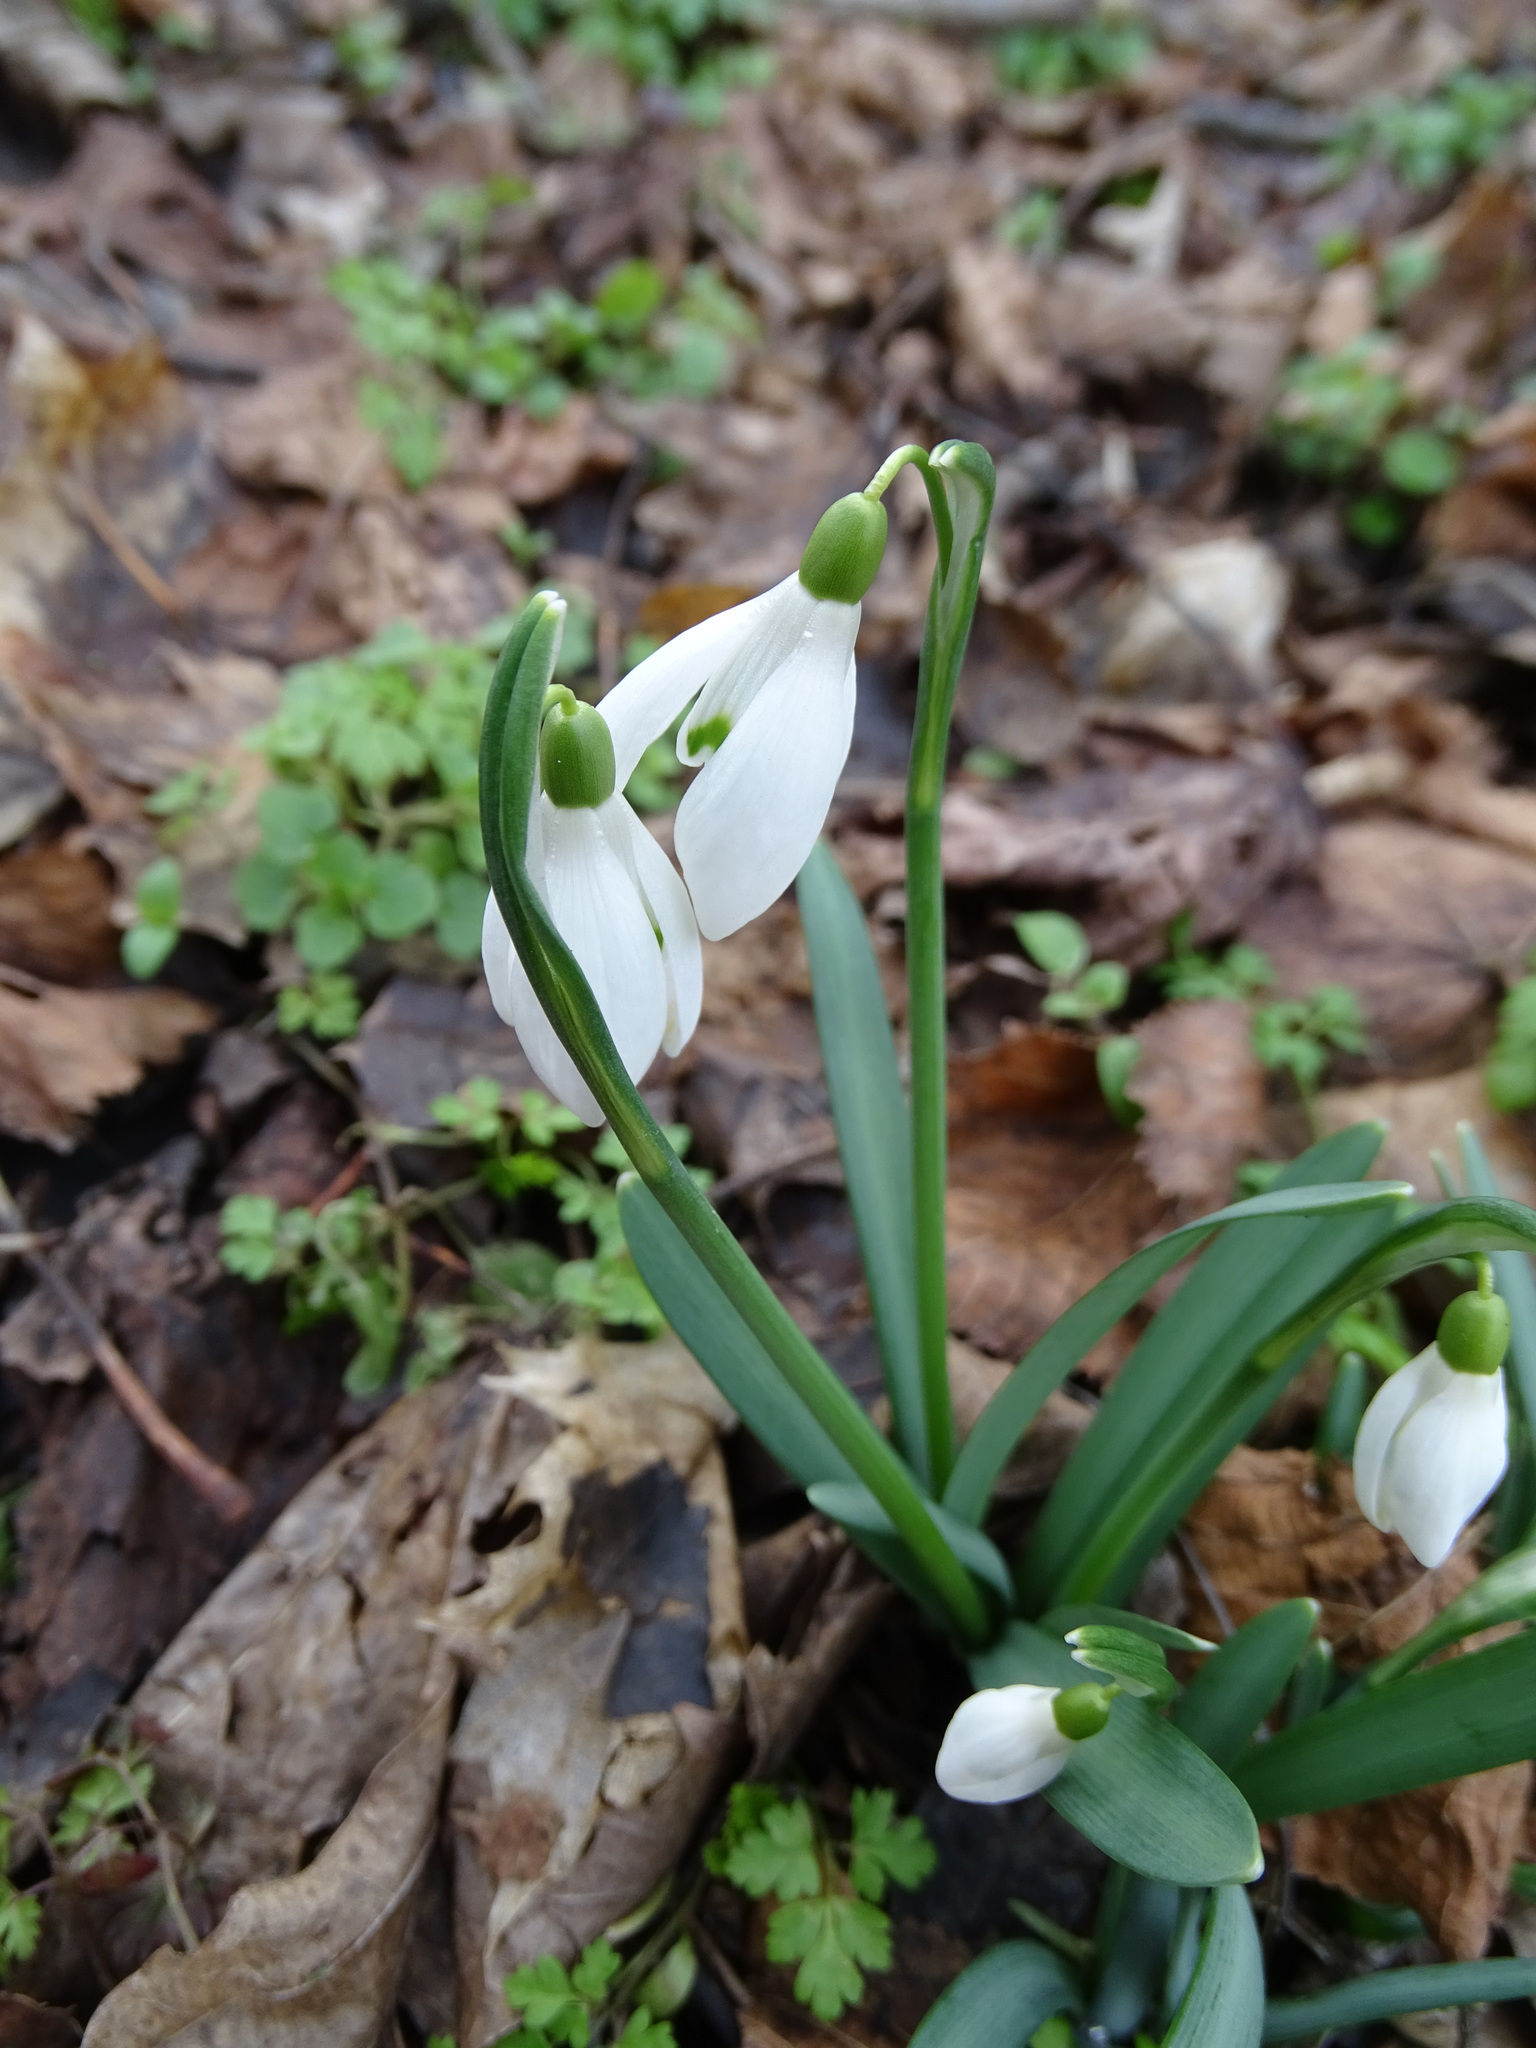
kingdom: Plantae
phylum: Tracheophyta
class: Liliopsida
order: Asparagales
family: Amaryllidaceae
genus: Galanthus
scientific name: Galanthus nivalis
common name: Snowdrop
